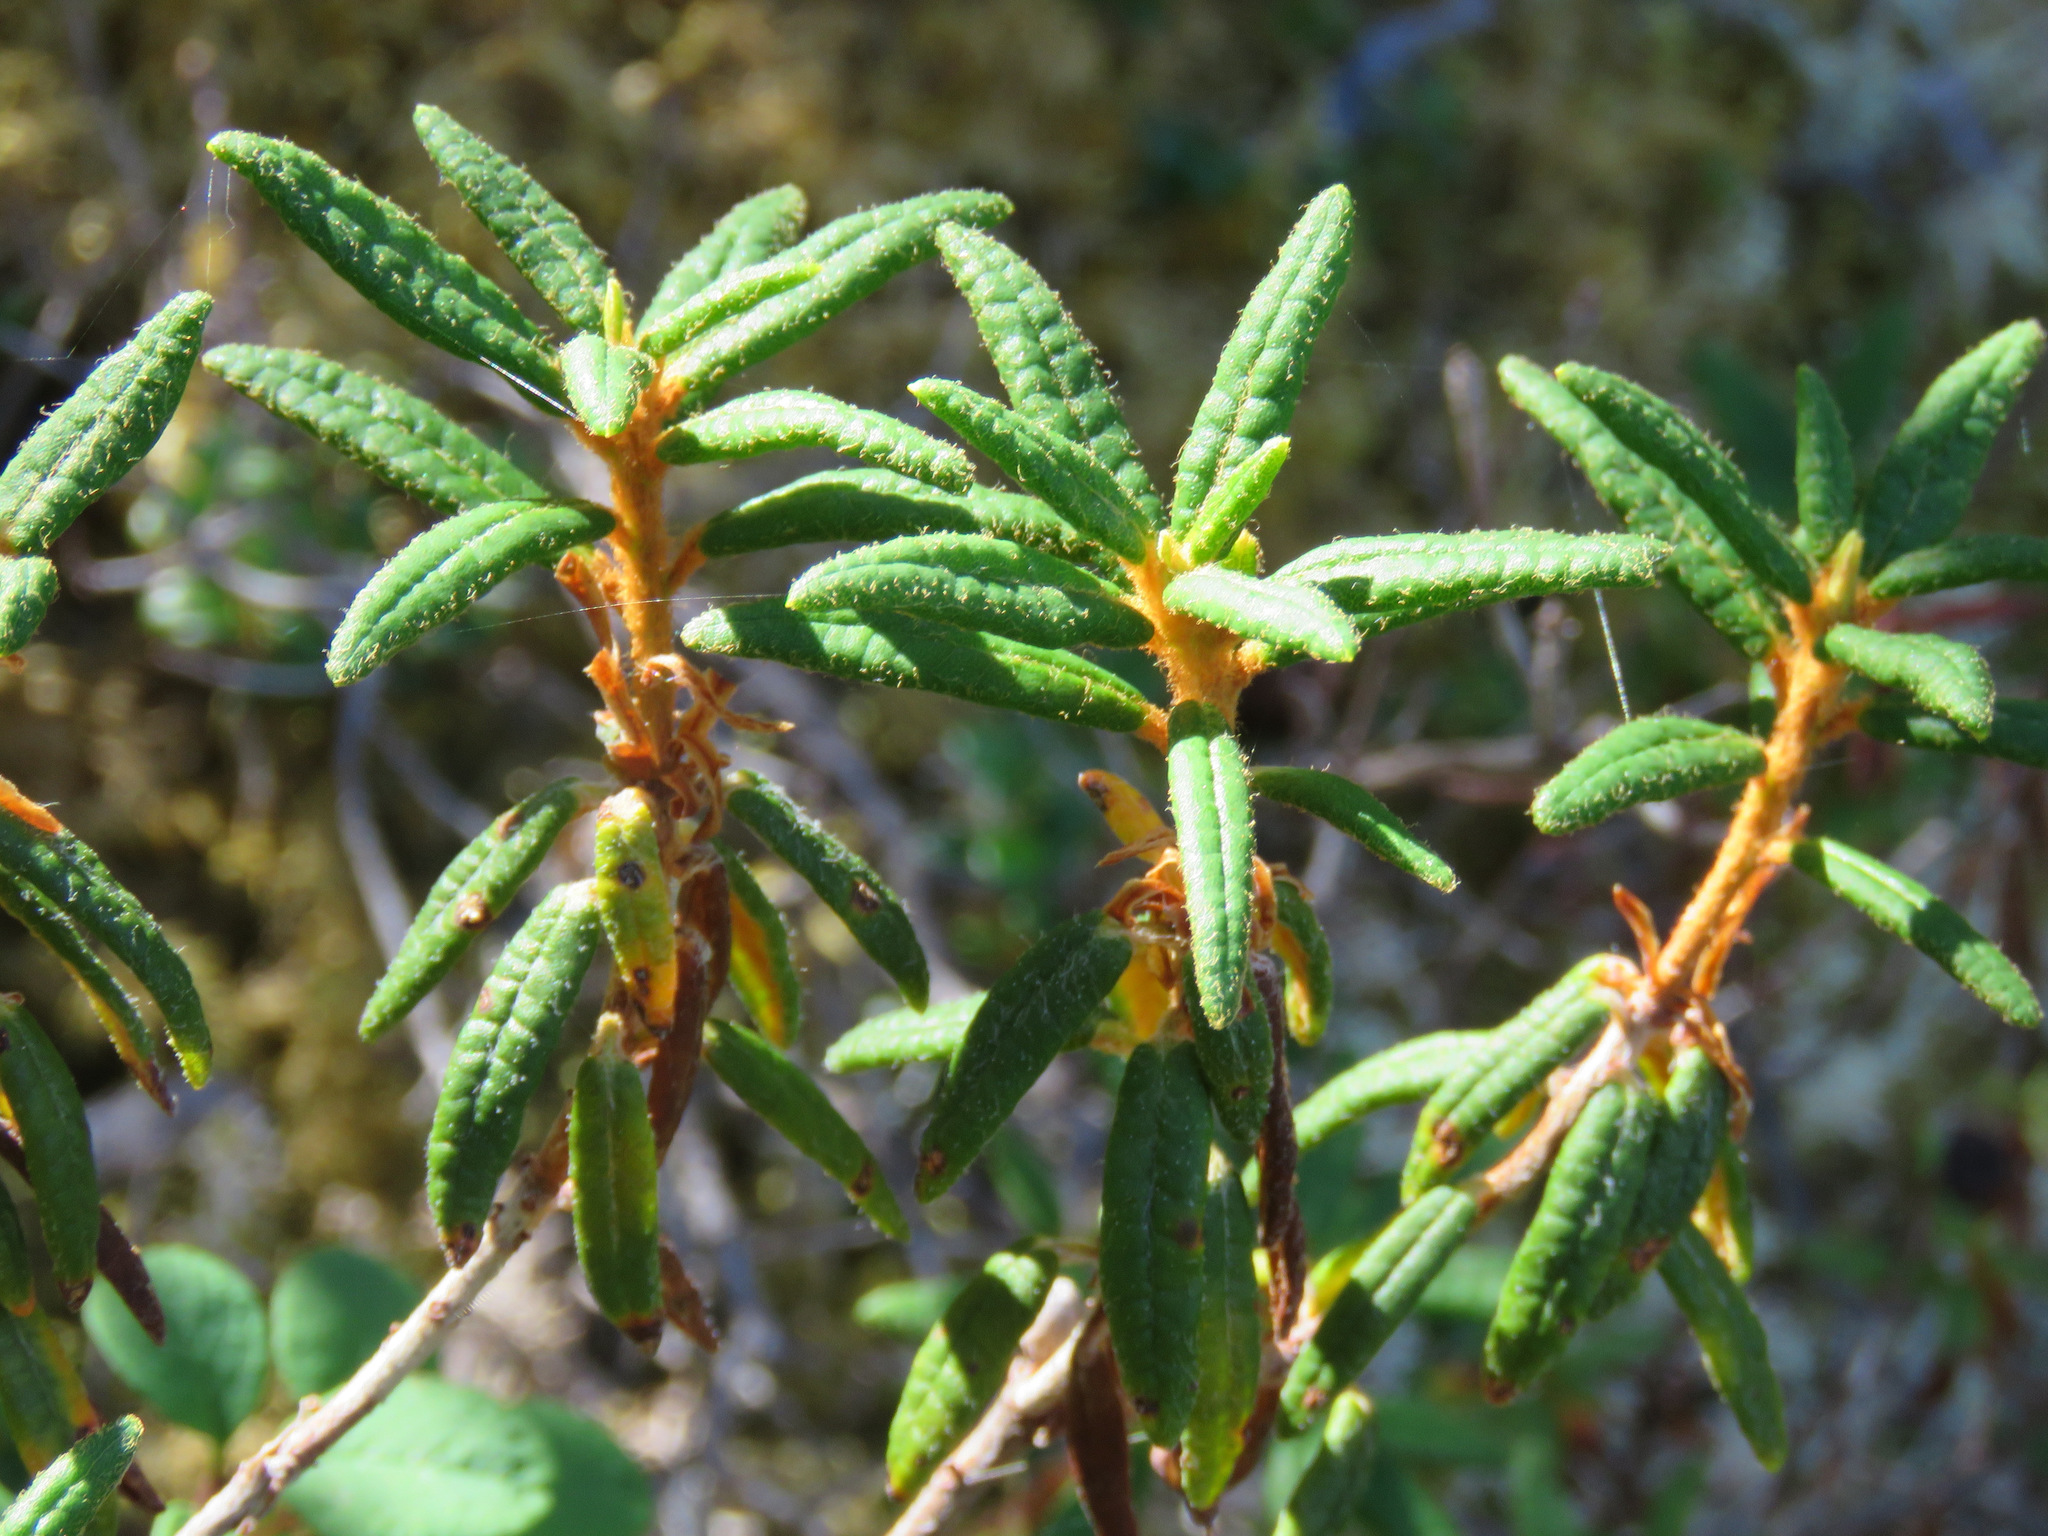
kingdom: Plantae
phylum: Tracheophyta
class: Magnoliopsida
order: Ericales
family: Ericaceae
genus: Rhododendron
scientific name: Rhododendron groenlandicum
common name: Bog labrador tea
